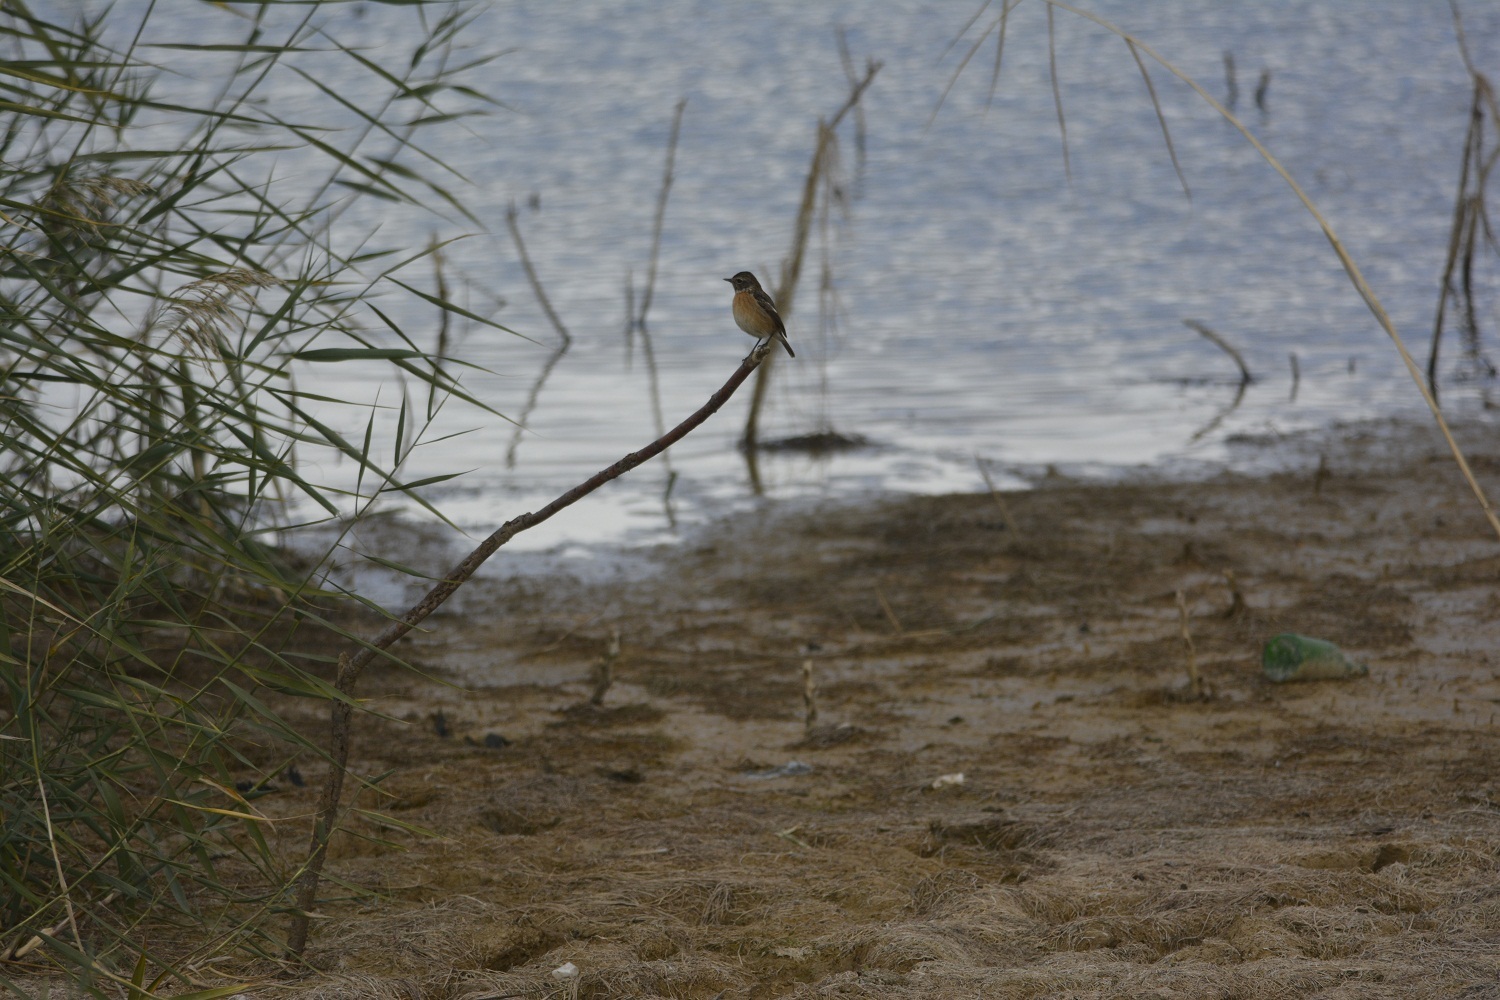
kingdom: Animalia
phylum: Chordata
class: Aves
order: Passeriformes
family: Muscicapidae
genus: Saxicola
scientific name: Saxicola rubicola
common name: European stonechat
